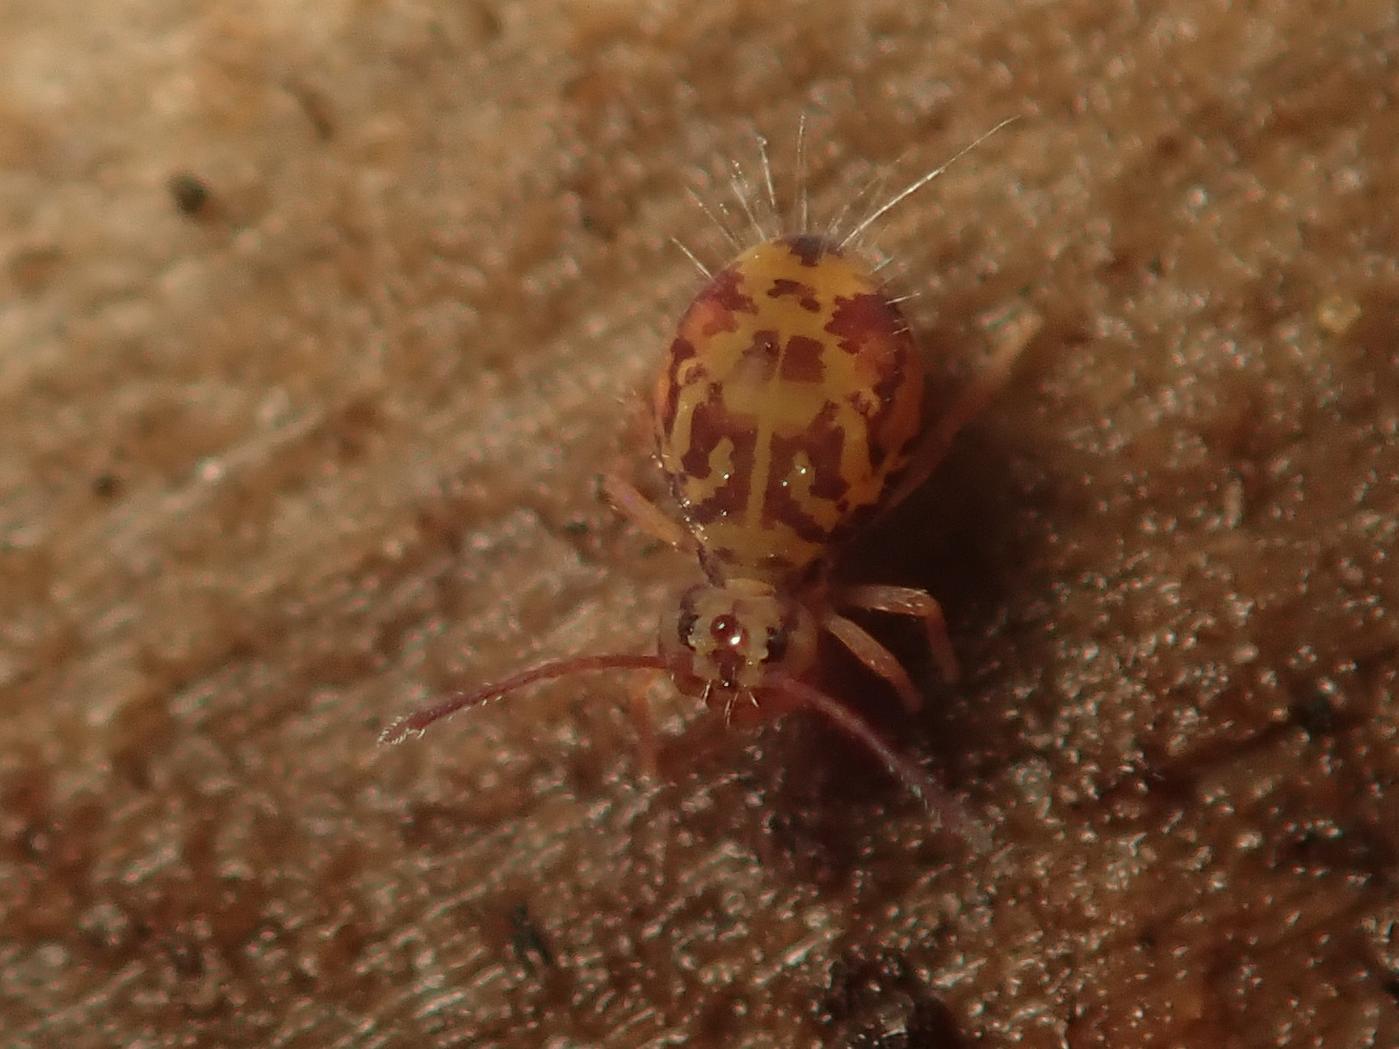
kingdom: Animalia
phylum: Arthropoda
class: Collembola
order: Symphypleona
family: Dicyrtomidae
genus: Dicyrtomina
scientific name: Dicyrtomina ornata
